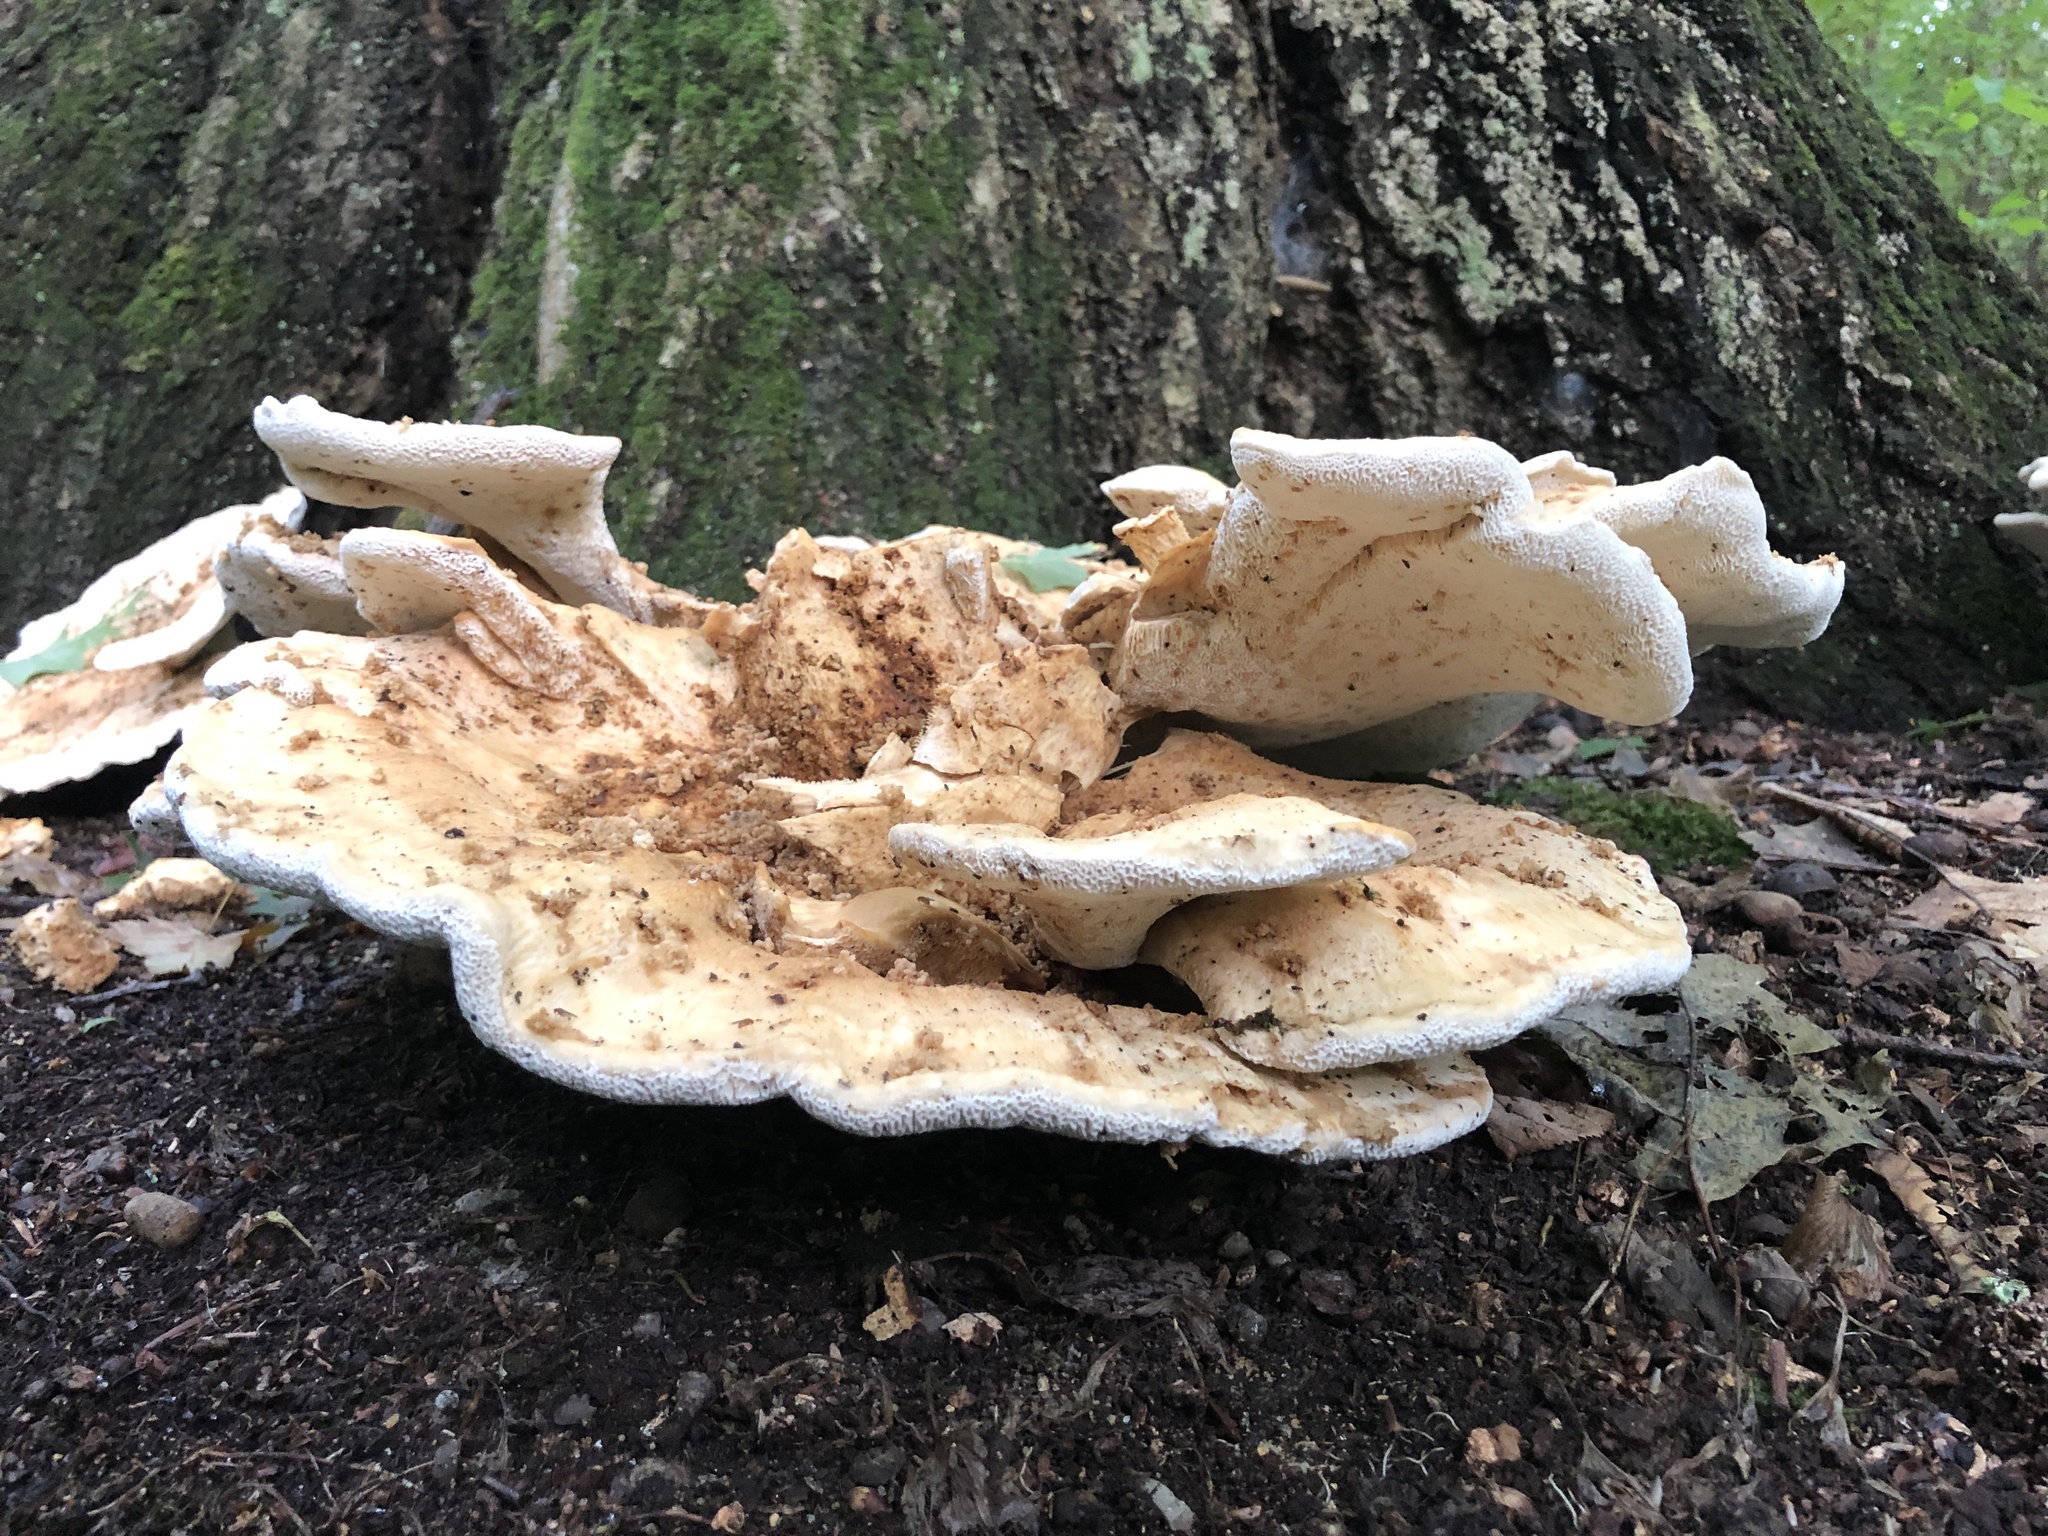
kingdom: Fungi
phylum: Basidiomycota
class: Agaricomycetes
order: Russulales
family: Bondarzewiaceae
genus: Bondarzewia
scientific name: Bondarzewia berkeleyi
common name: Berkeley's polypore
